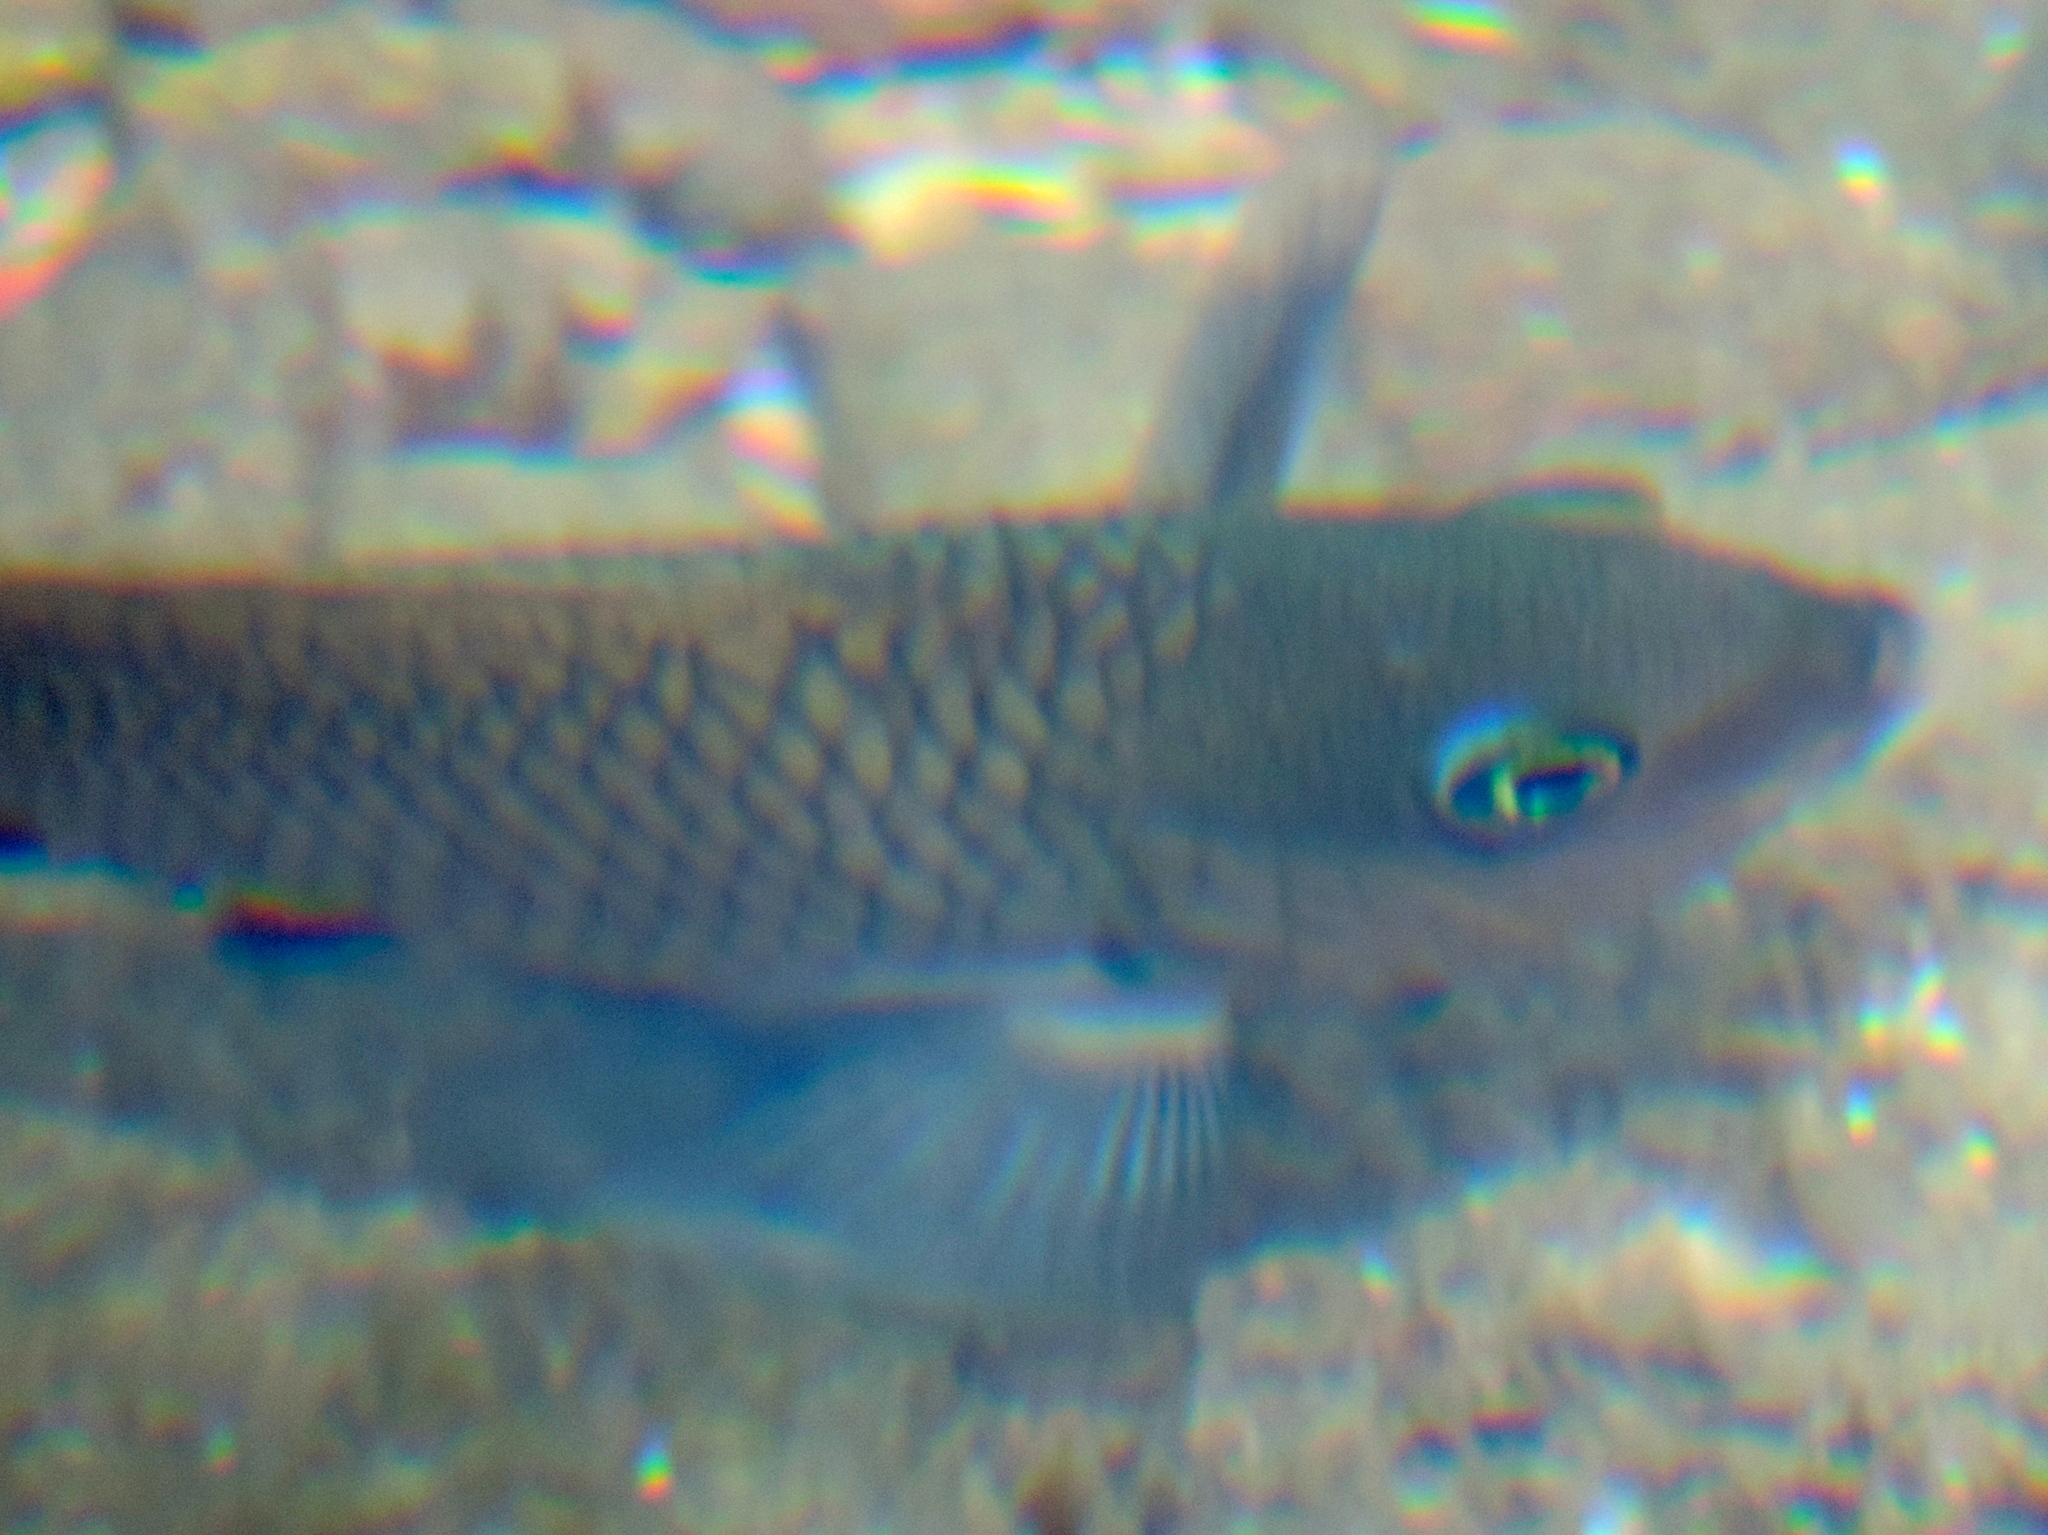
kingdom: Animalia
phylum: Chordata
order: Perciformes
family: Pomacentridae
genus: Stegastes
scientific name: Stegastes rectifraenum
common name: Cortez damselfish
